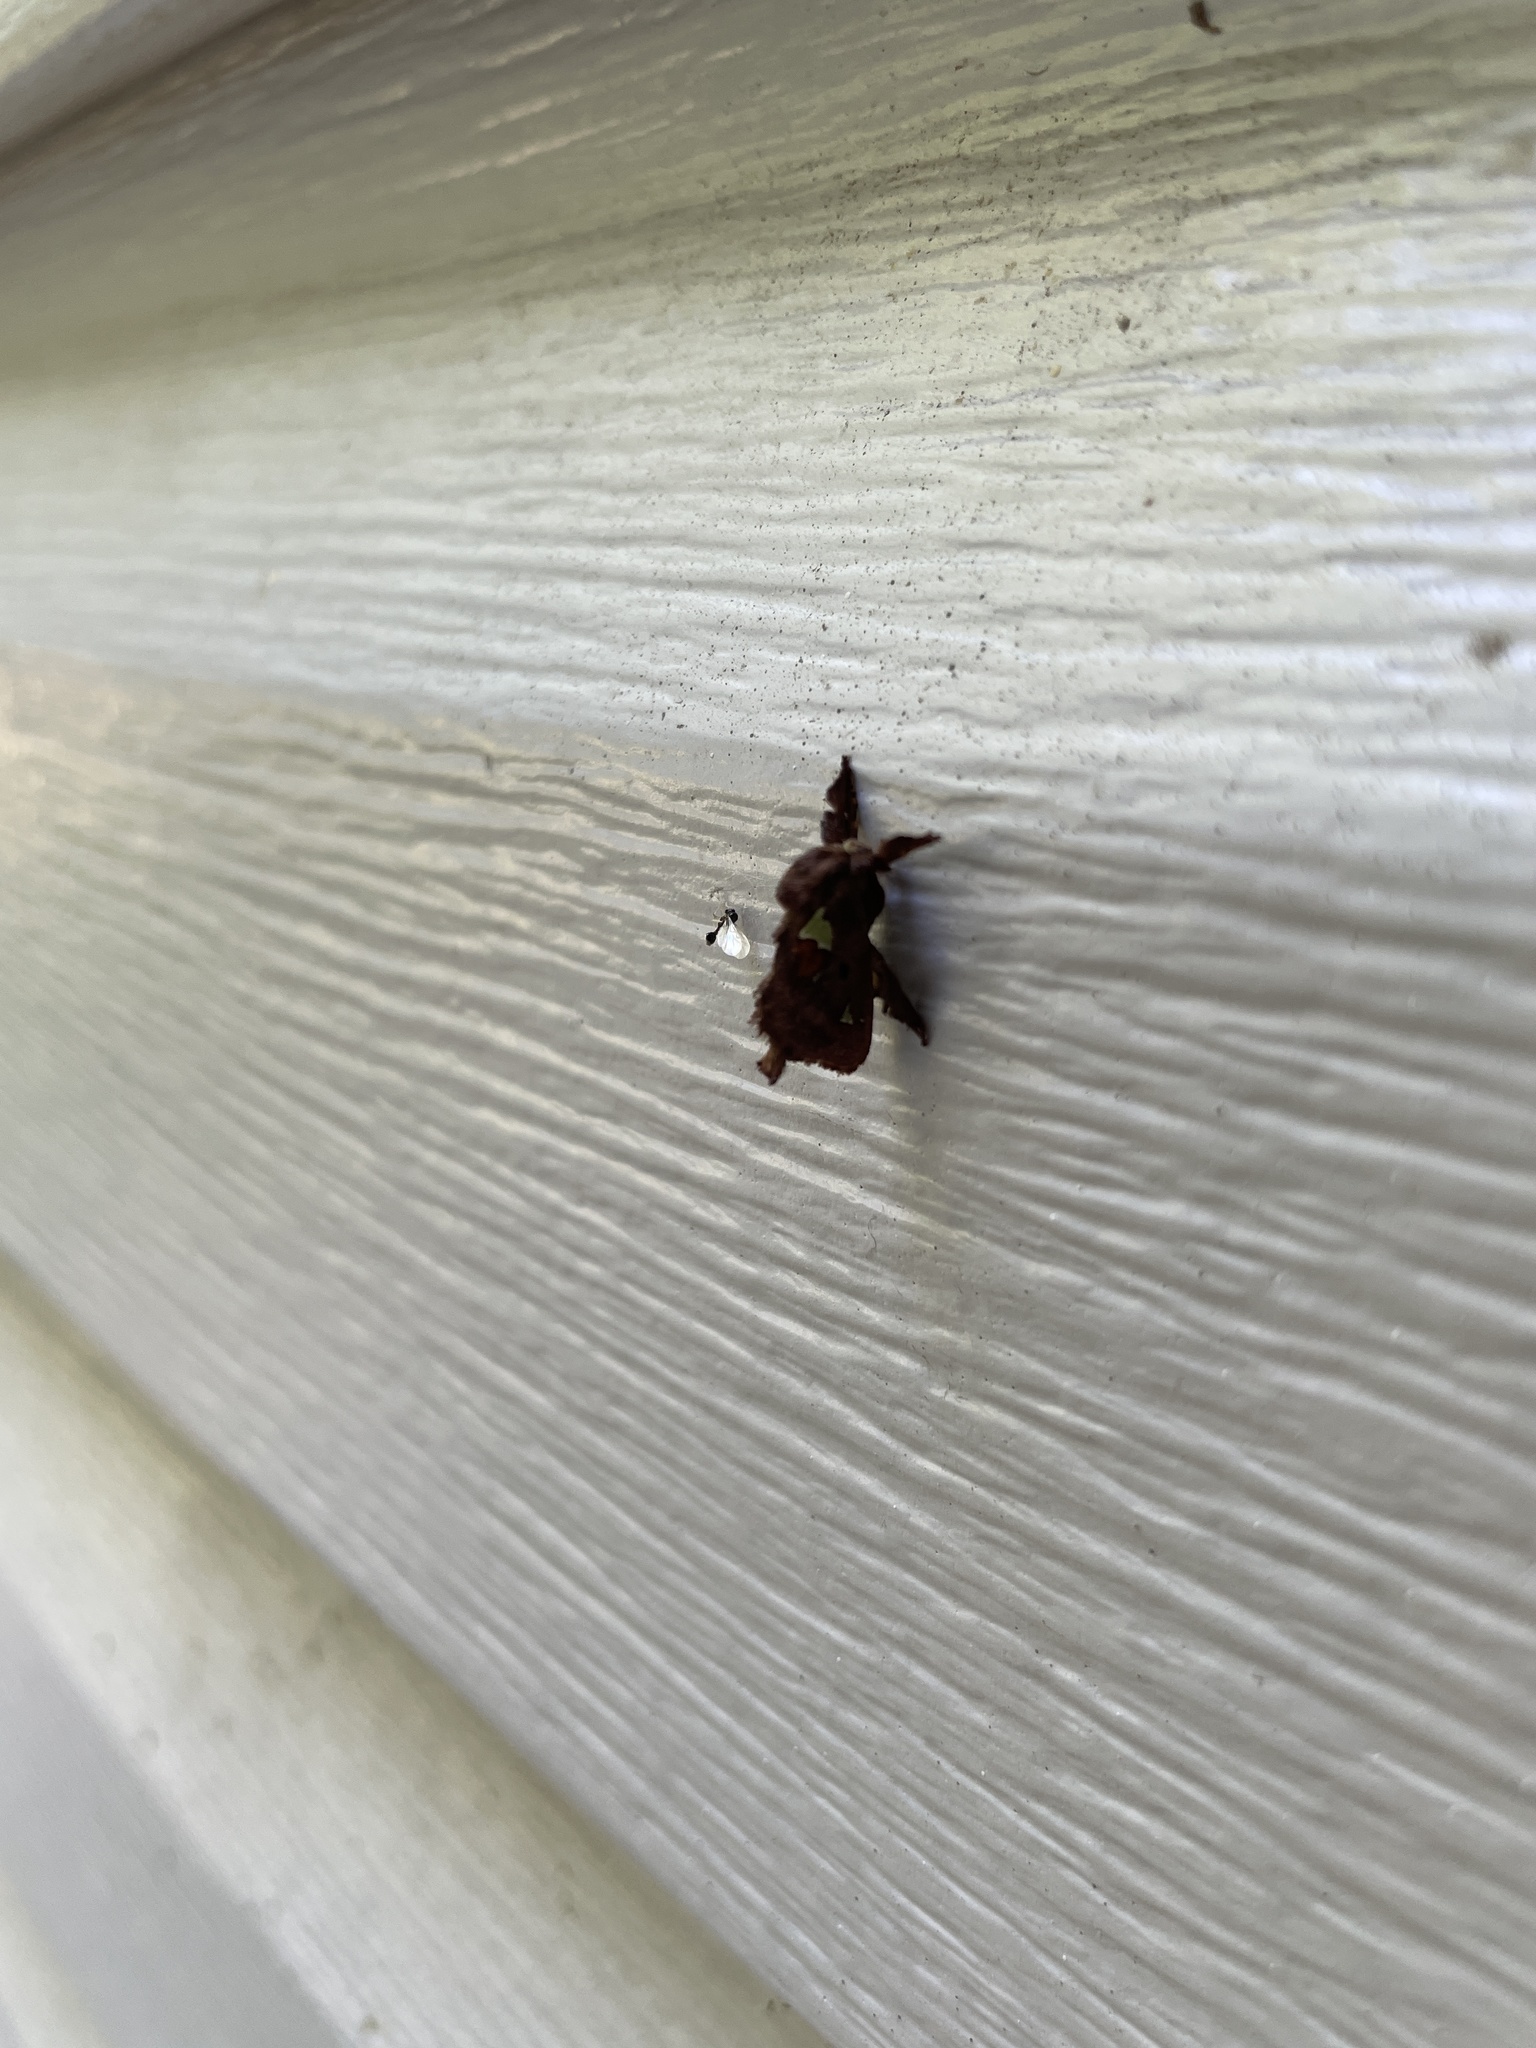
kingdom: Animalia
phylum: Arthropoda
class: Insecta
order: Lepidoptera
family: Limacodidae
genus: Euclea
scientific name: Euclea delphinii
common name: Spiny oak-slug moth
